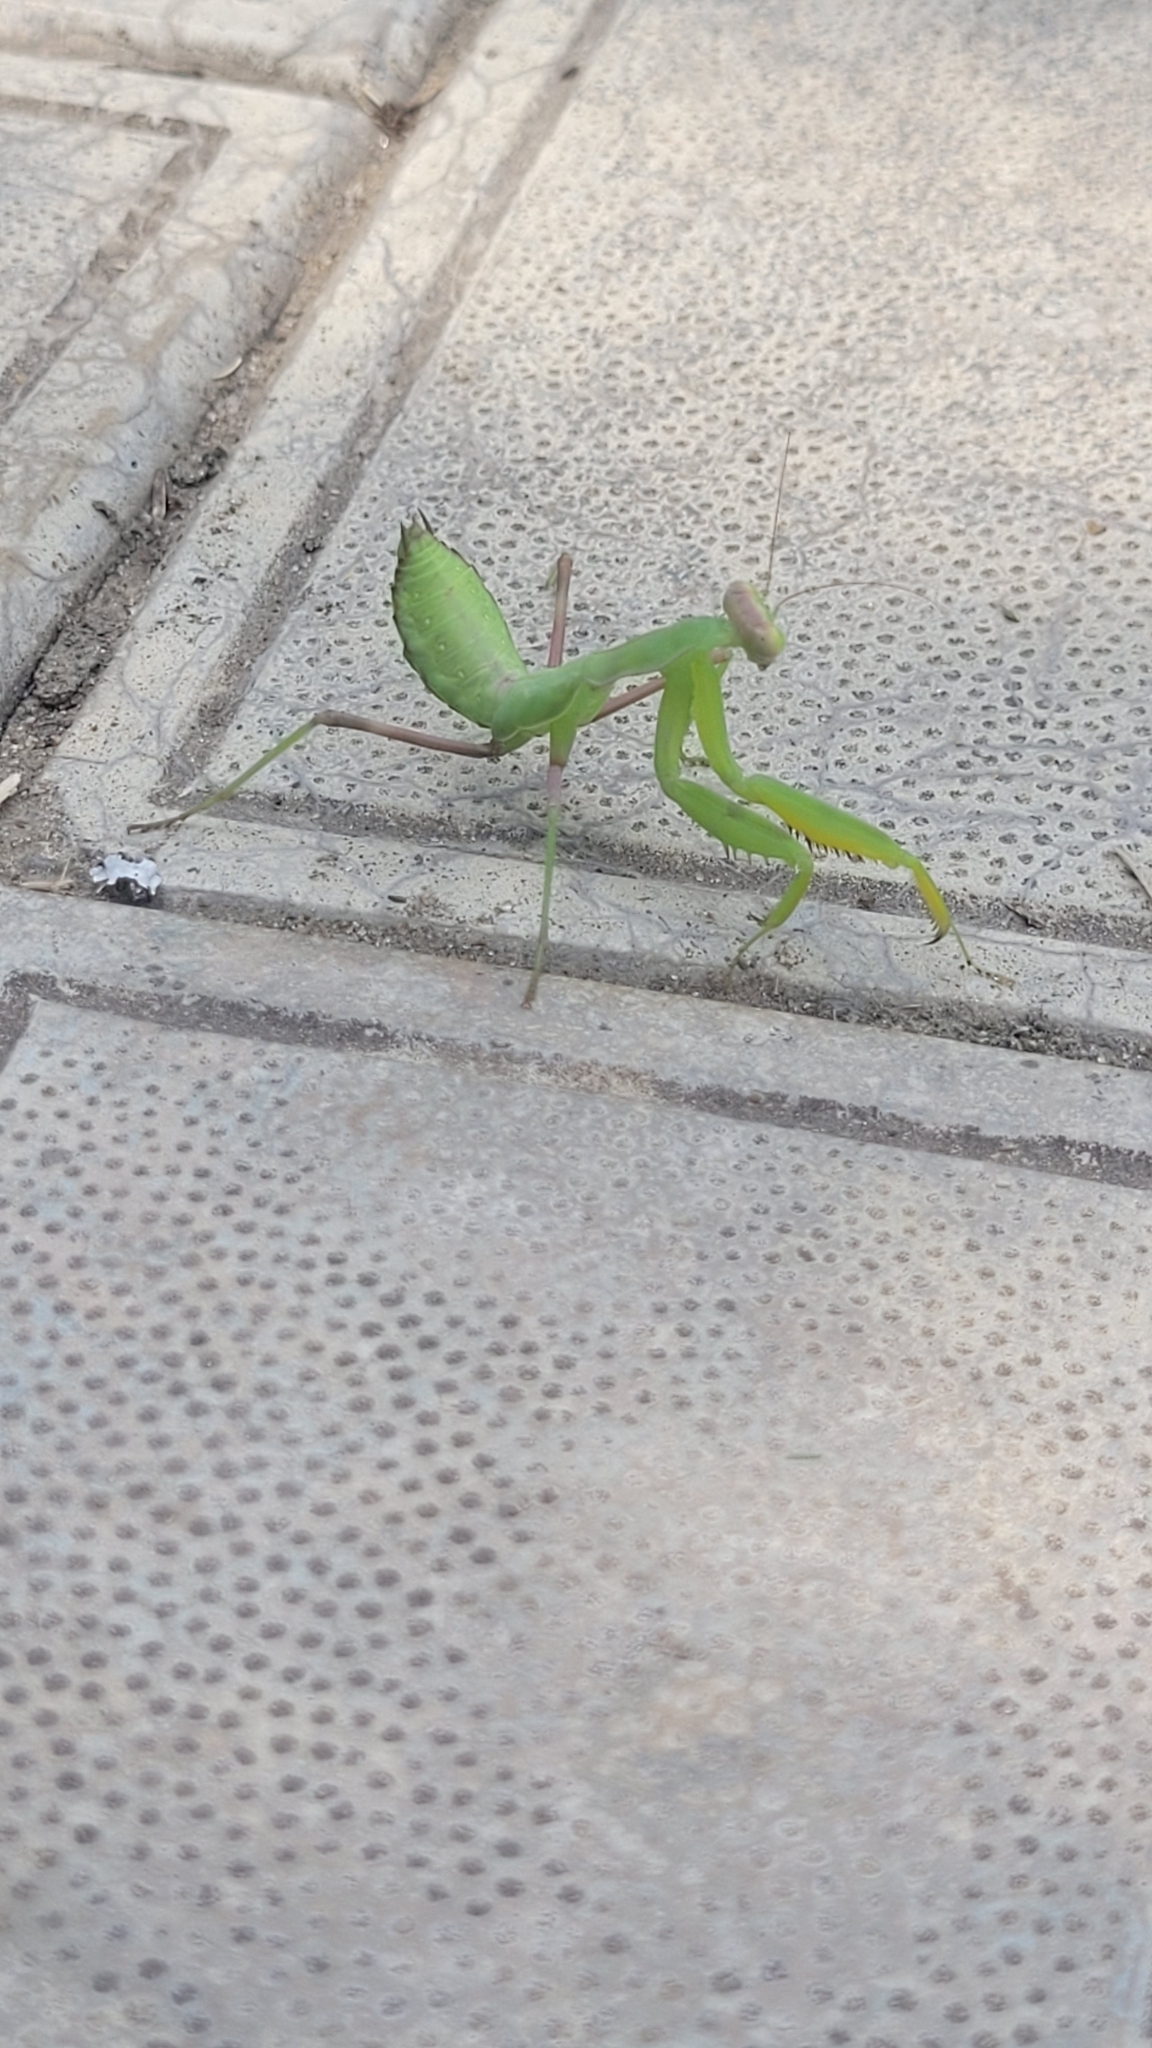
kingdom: Animalia
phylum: Arthropoda
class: Insecta
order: Mantodea
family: Mantidae
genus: Hierodula
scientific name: Hierodula transcaucasica
